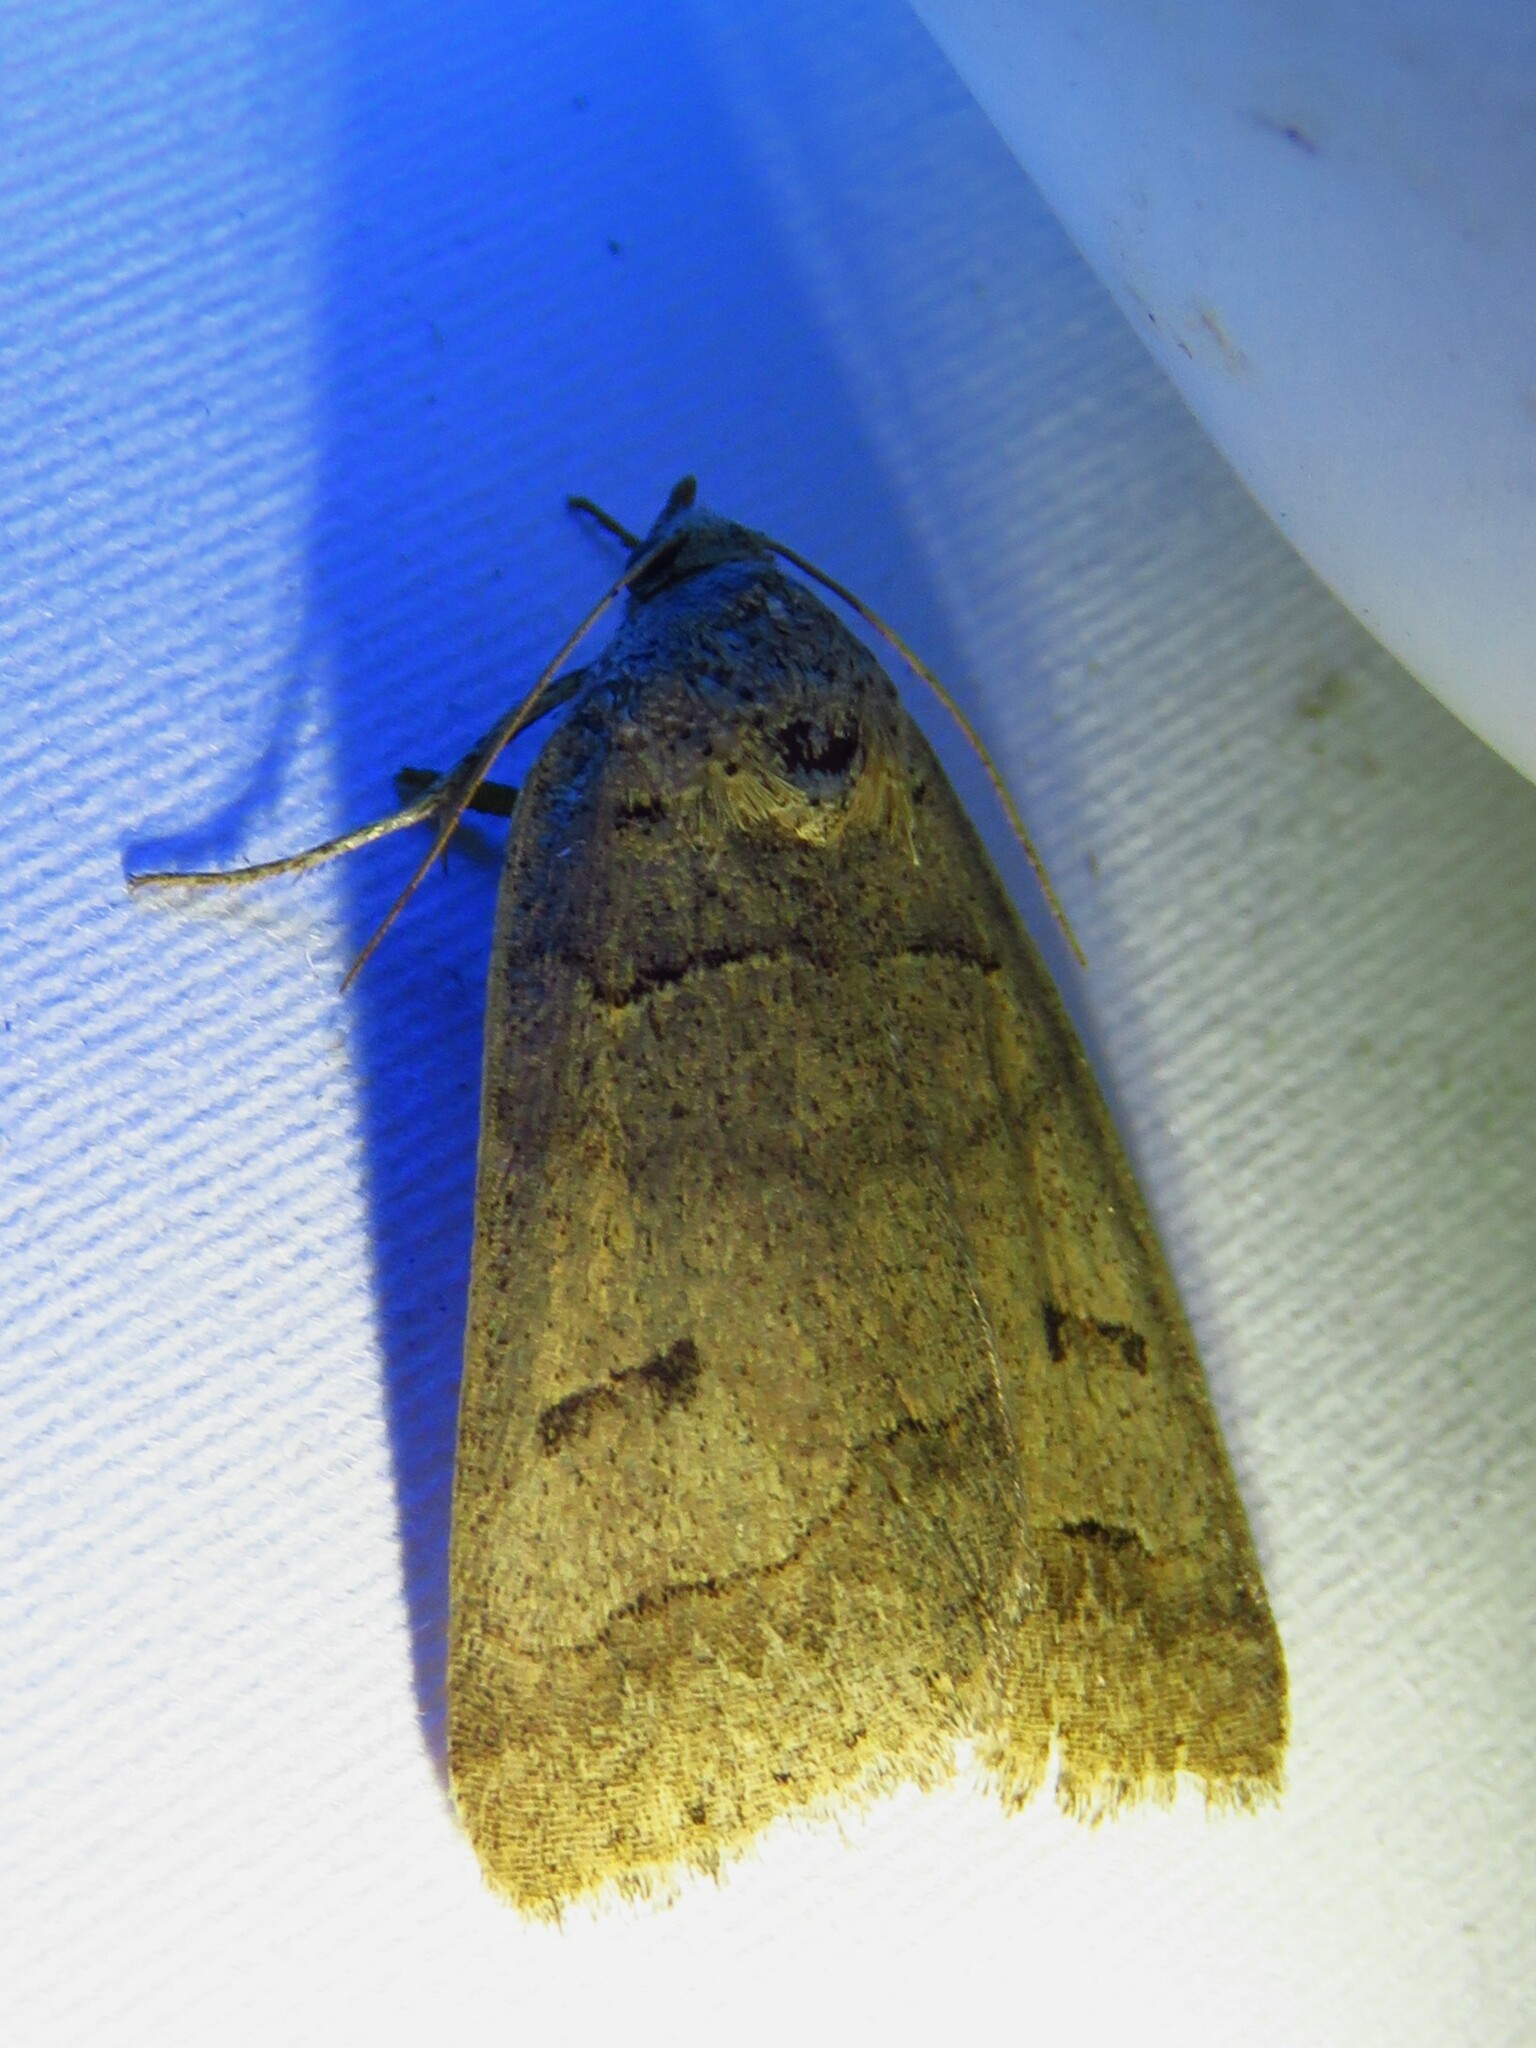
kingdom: Animalia
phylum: Arthropoda
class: Insecta
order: Lepidoptera
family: Erebidae
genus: Phoberia
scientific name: Phoberia atomaris
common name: Common oak moth
